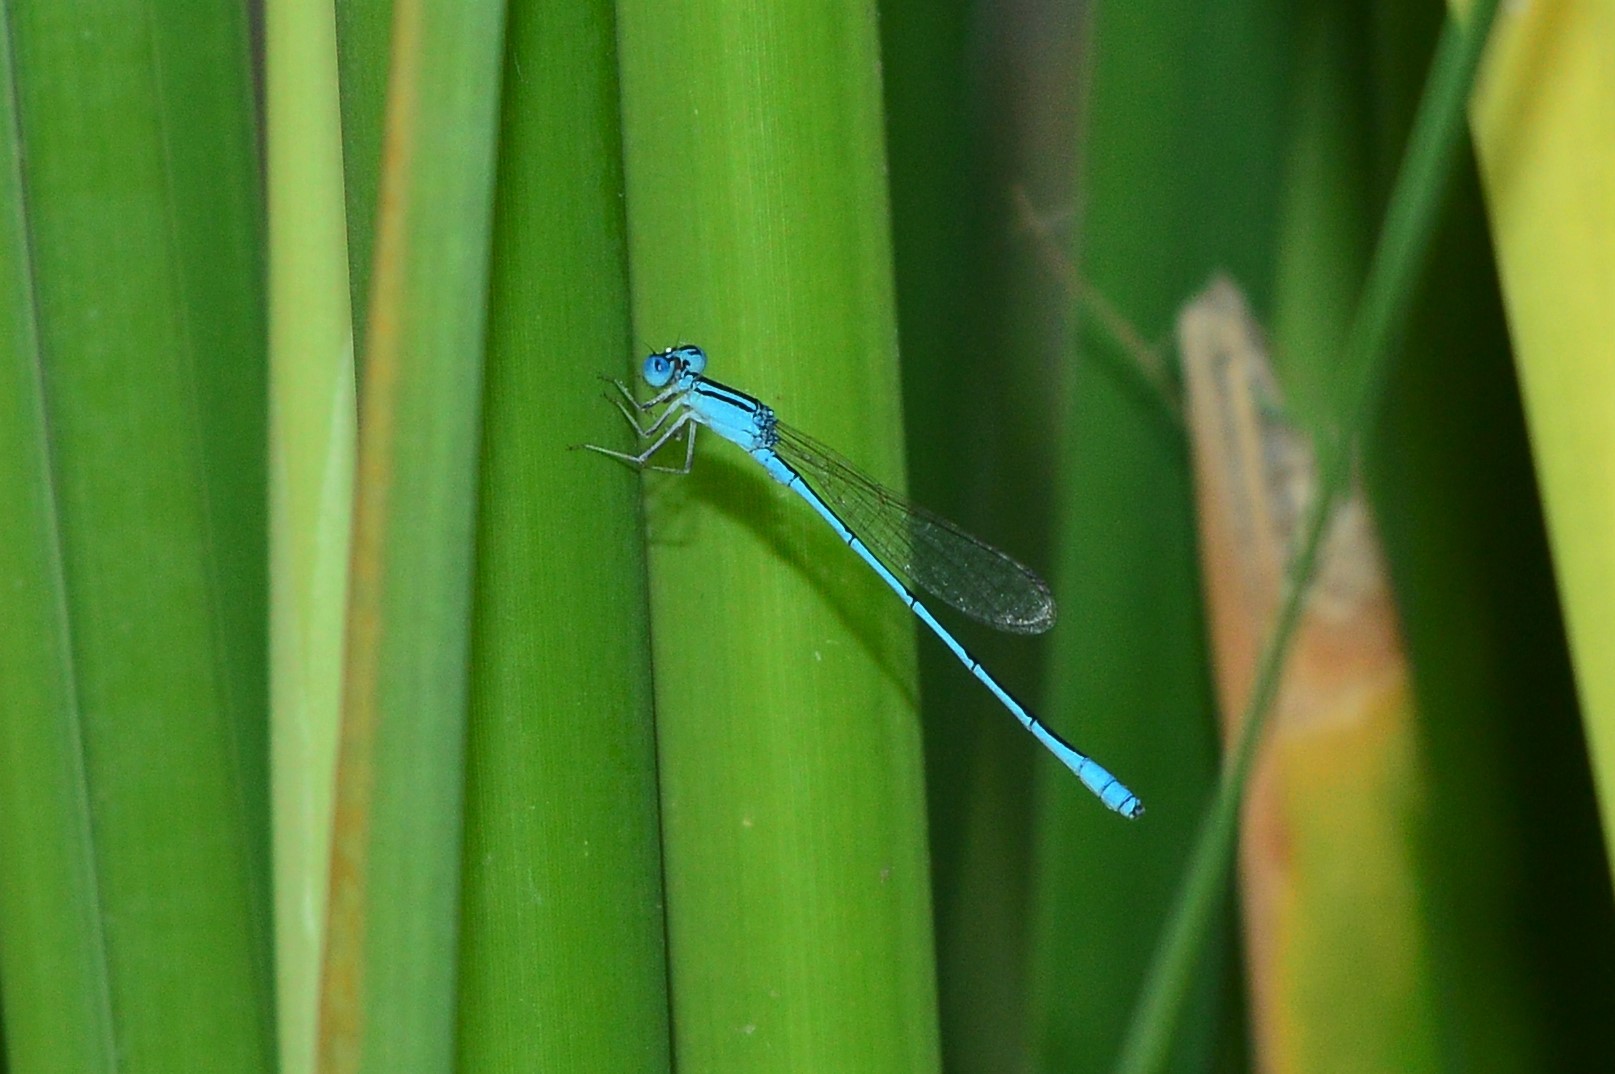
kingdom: Animalia
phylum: Arthropoda
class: Insecta
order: Odonata
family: Coenagrionidae
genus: Amphiallagma
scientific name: Amphiallagma parvum
